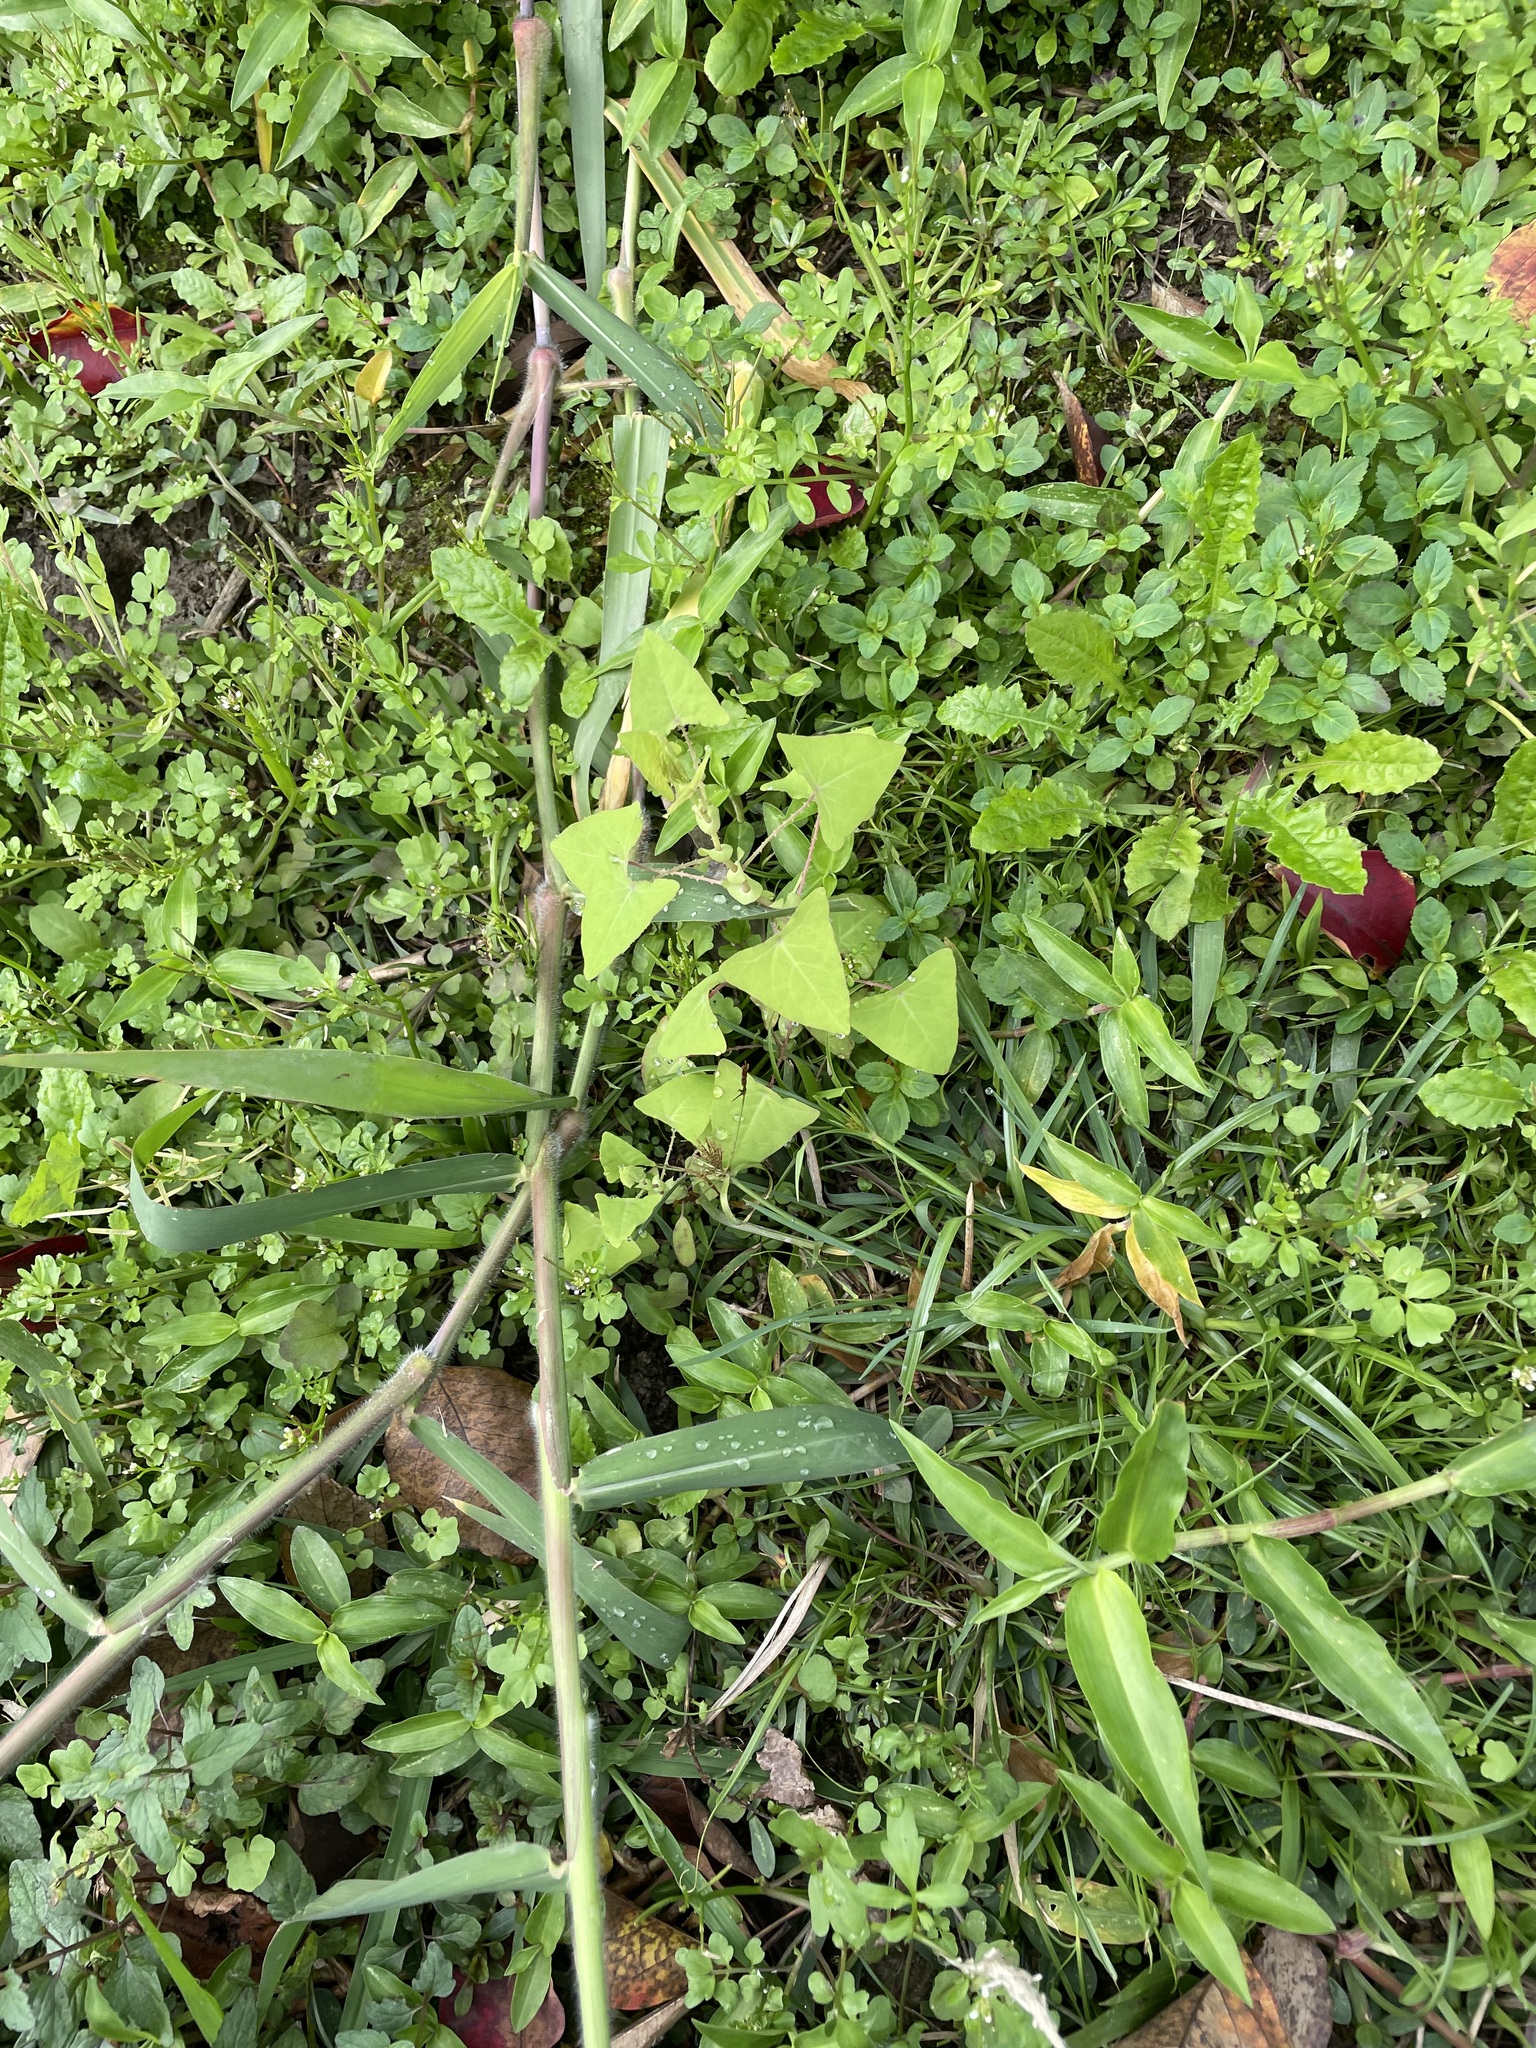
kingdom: Plantae
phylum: Tracheophyta
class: Magnoliopsida
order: Caryophyllales
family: Polygonaceae
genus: Persicaria
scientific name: Persicaria perfoliata
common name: Asiatic tearthumb
